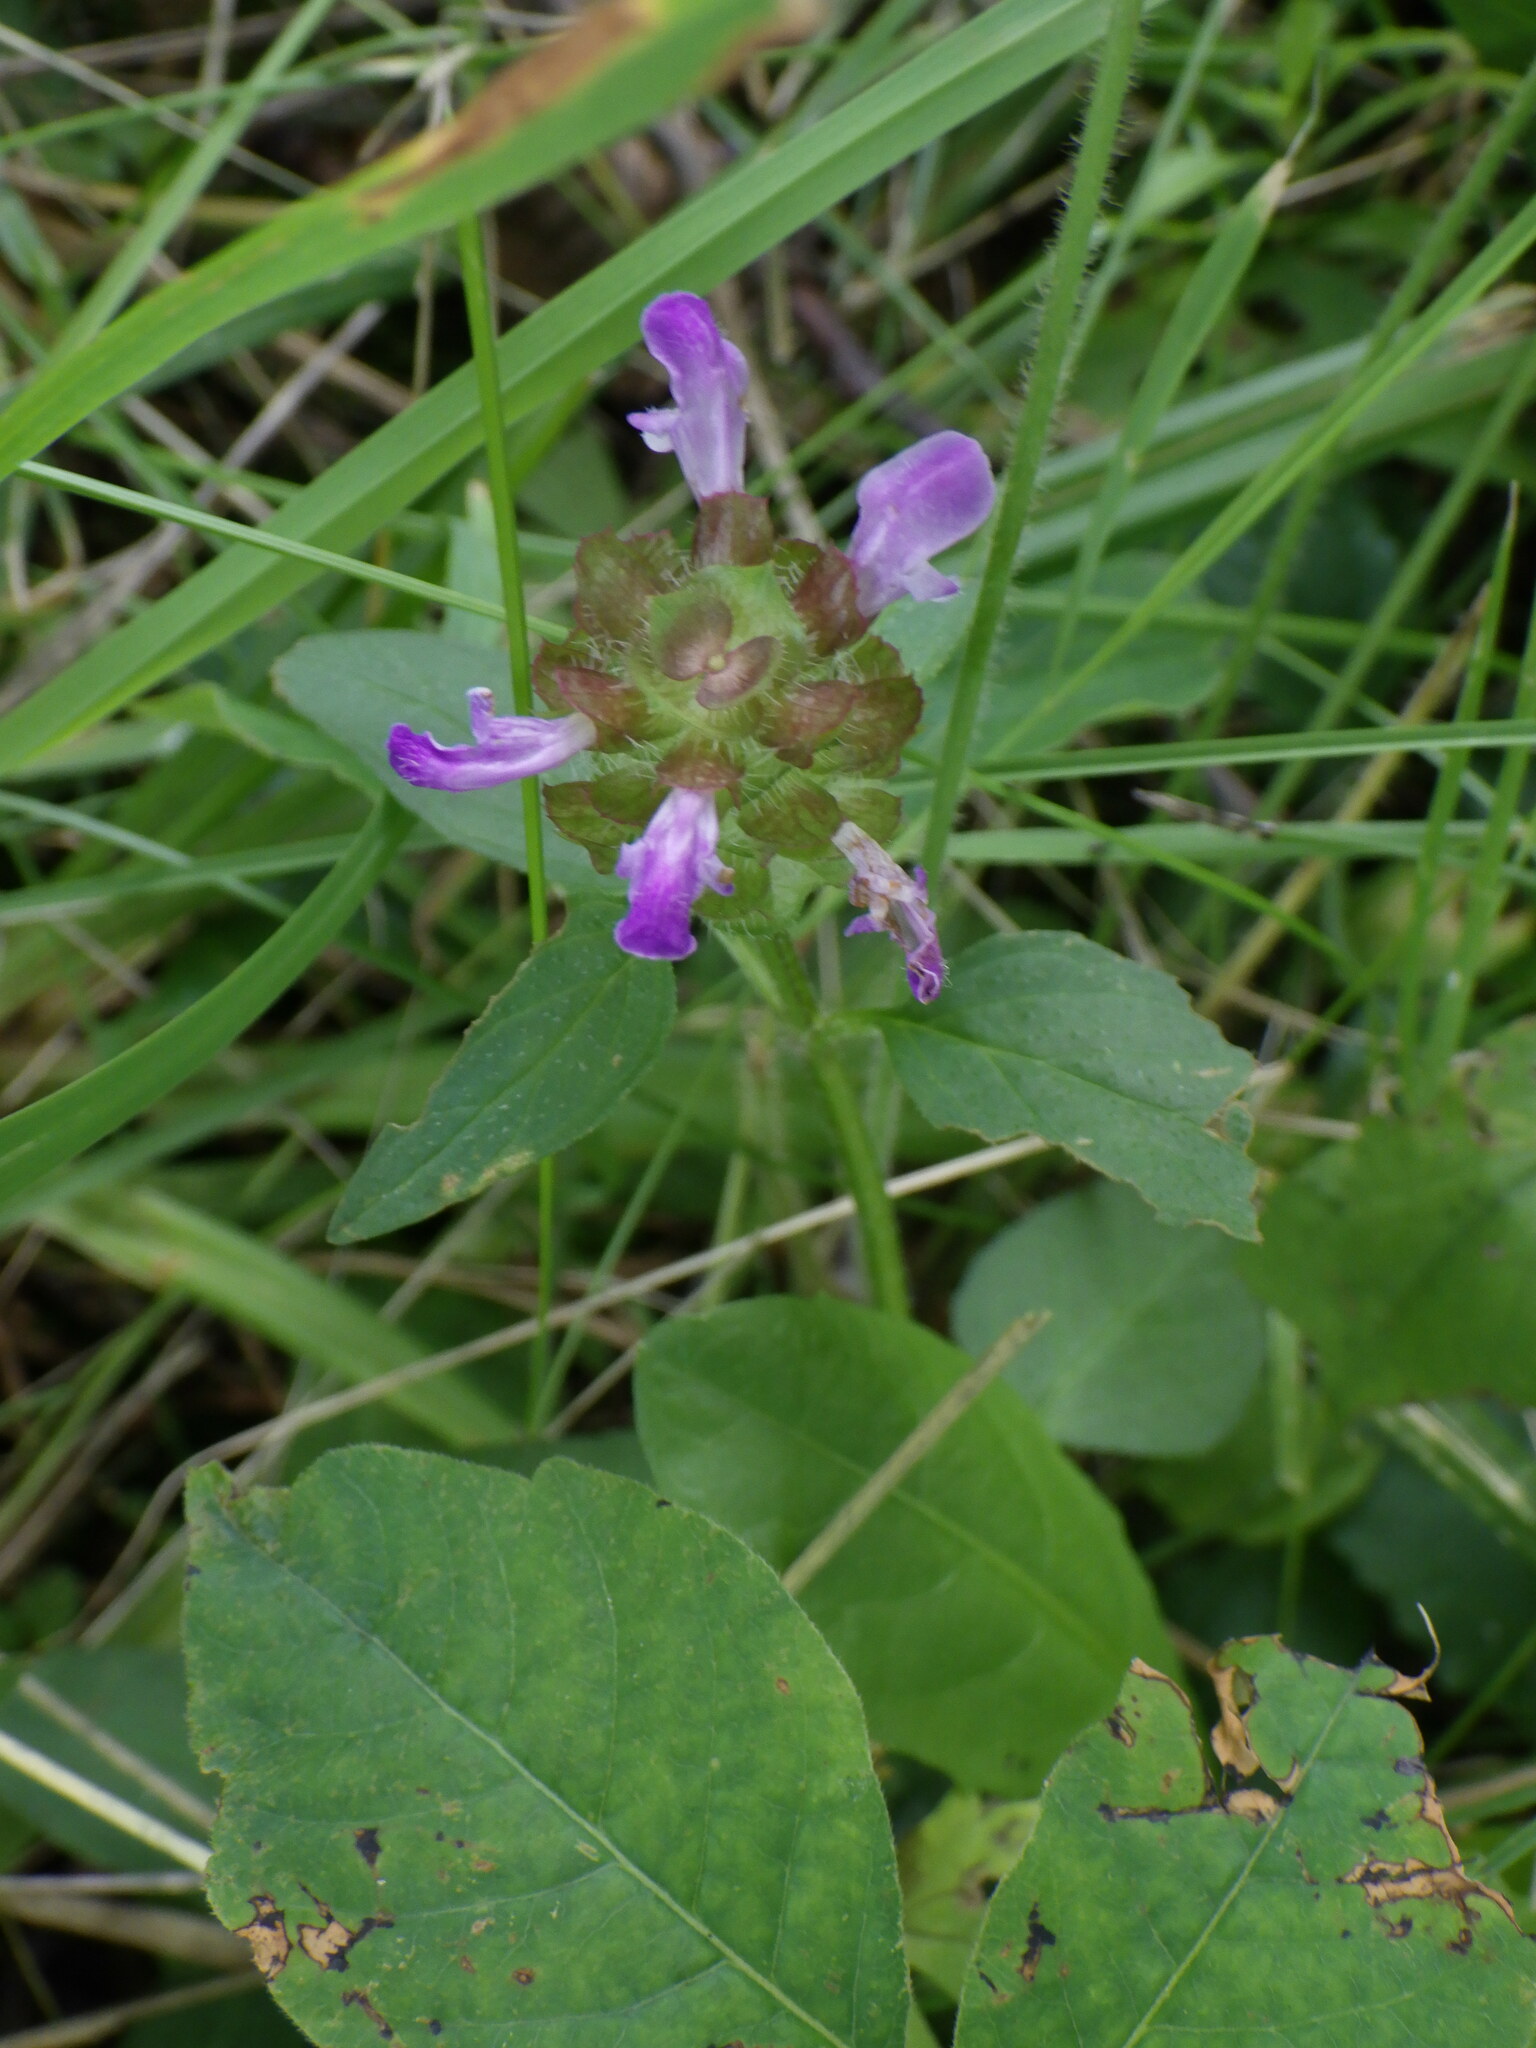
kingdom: Plantae
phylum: Tracheophyta
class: Magnoliopsida
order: Lamiales
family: Lamiaceae
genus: Prunella
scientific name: Prunella vulgaris
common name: Heal-all
